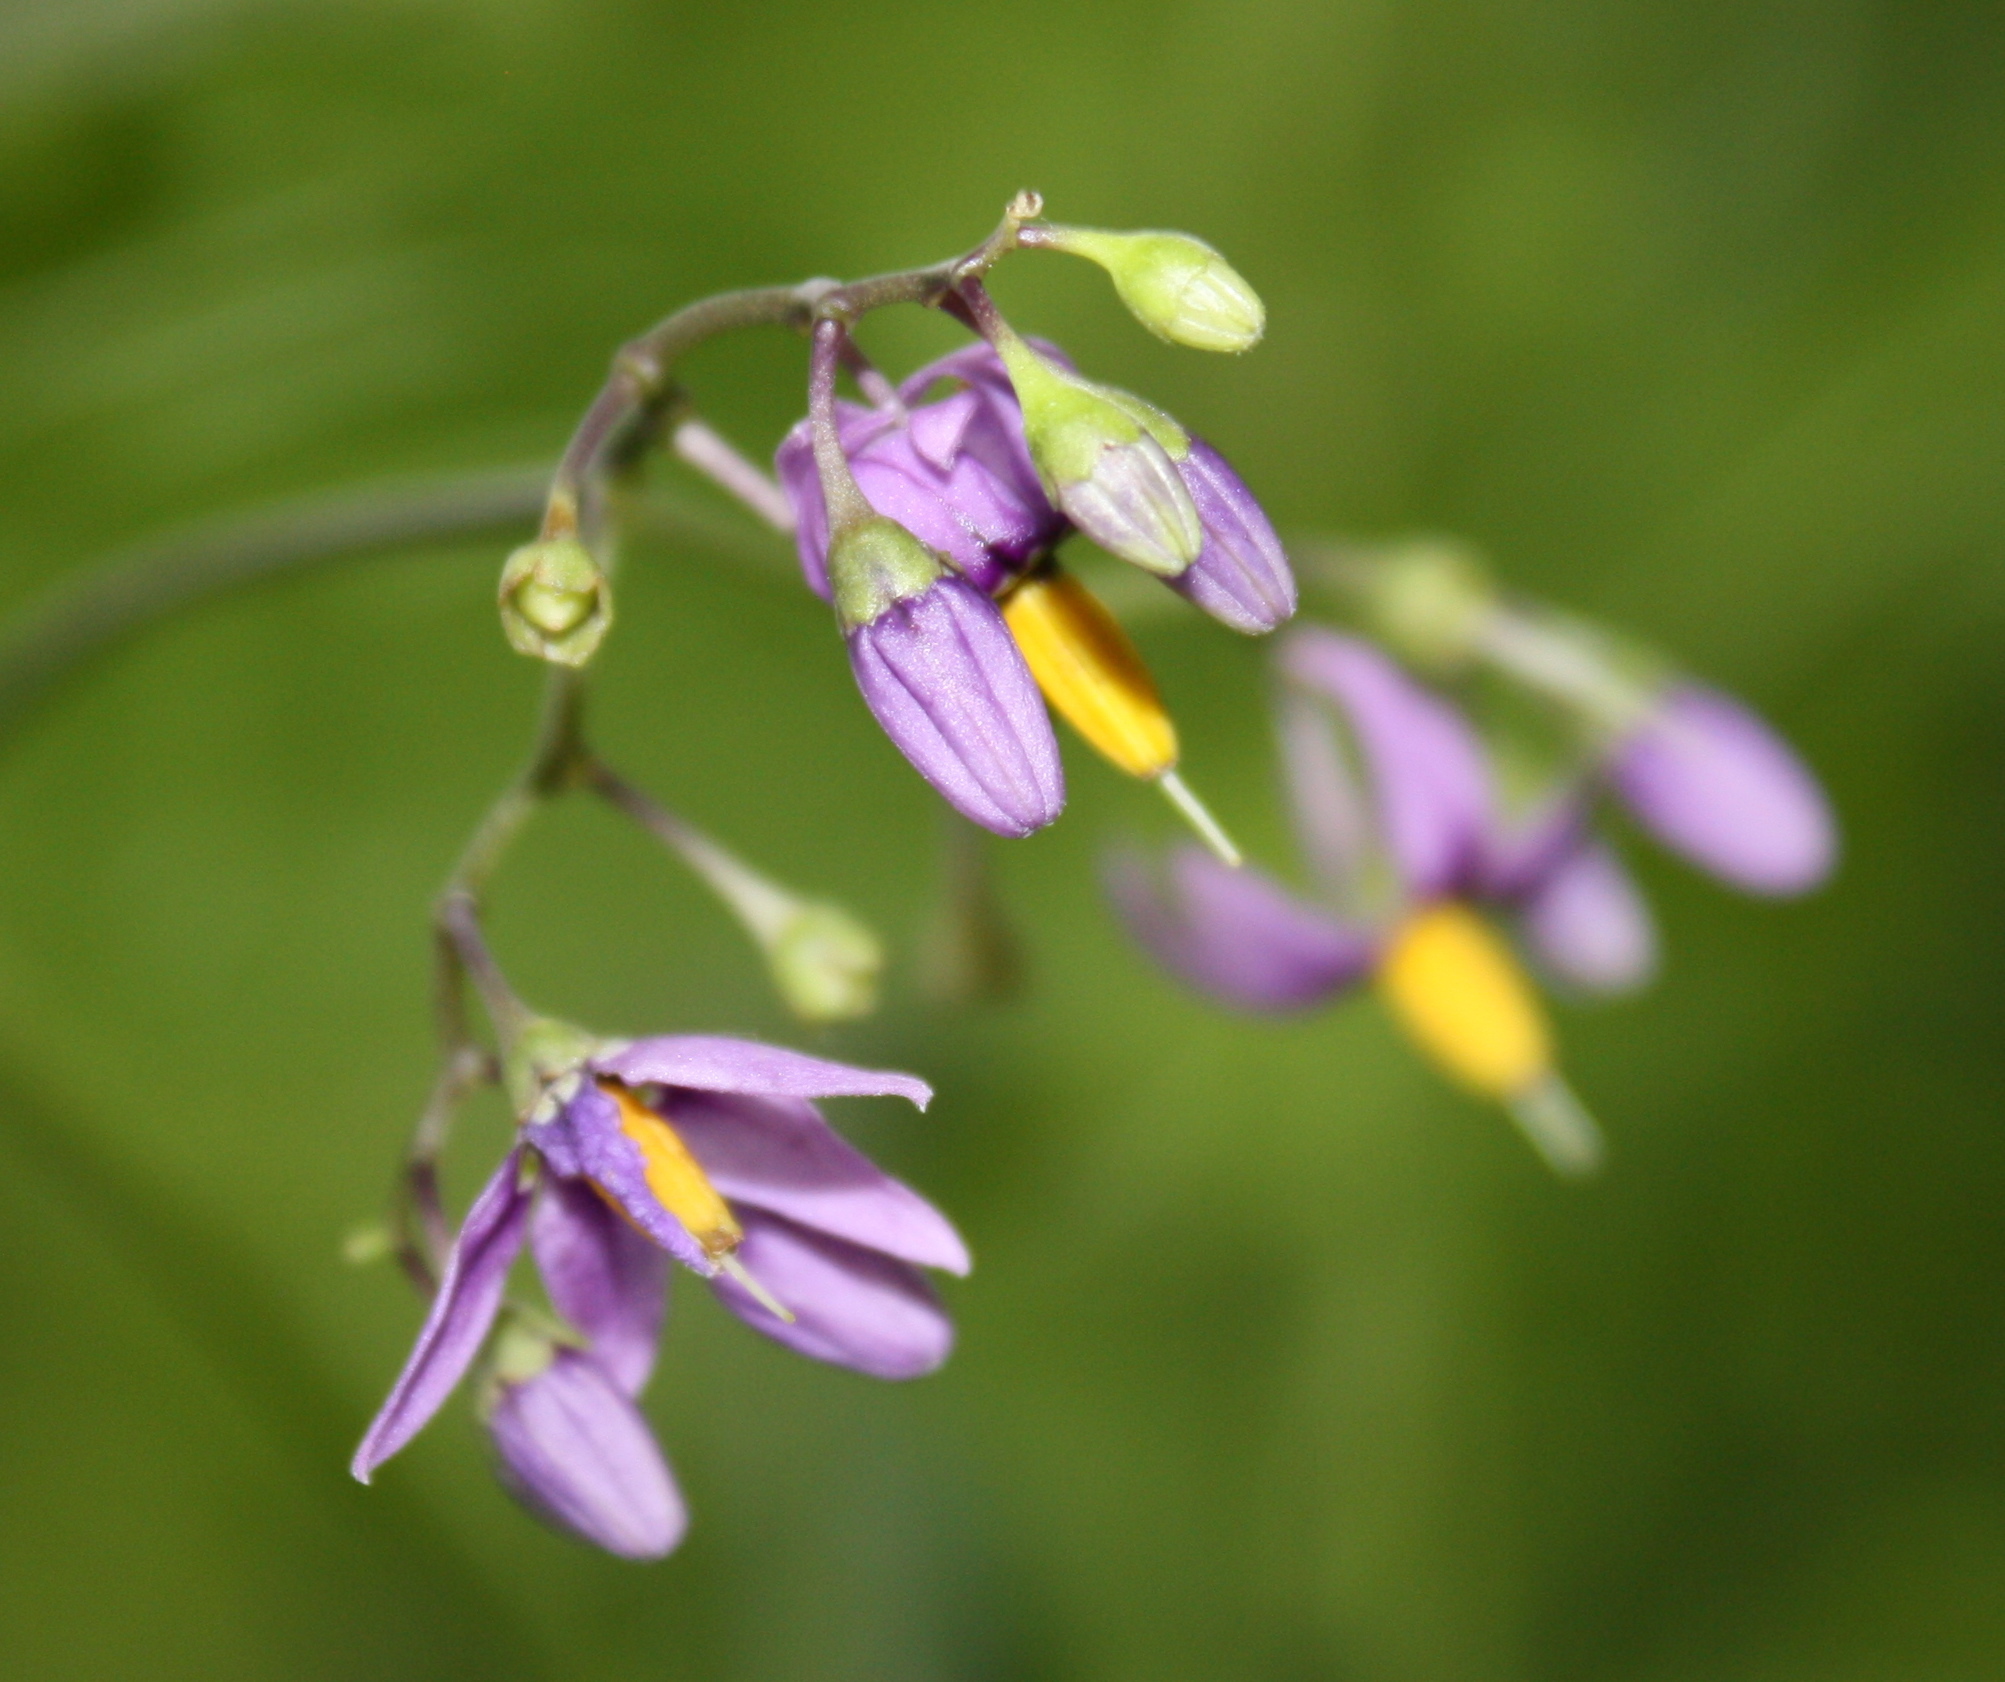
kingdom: Plantae
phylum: Tracheophyta
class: Magnoliopsida
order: Solanales
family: Solanaceae
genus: Solanum
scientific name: Solanum dulcamara
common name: Climbing nightshade
